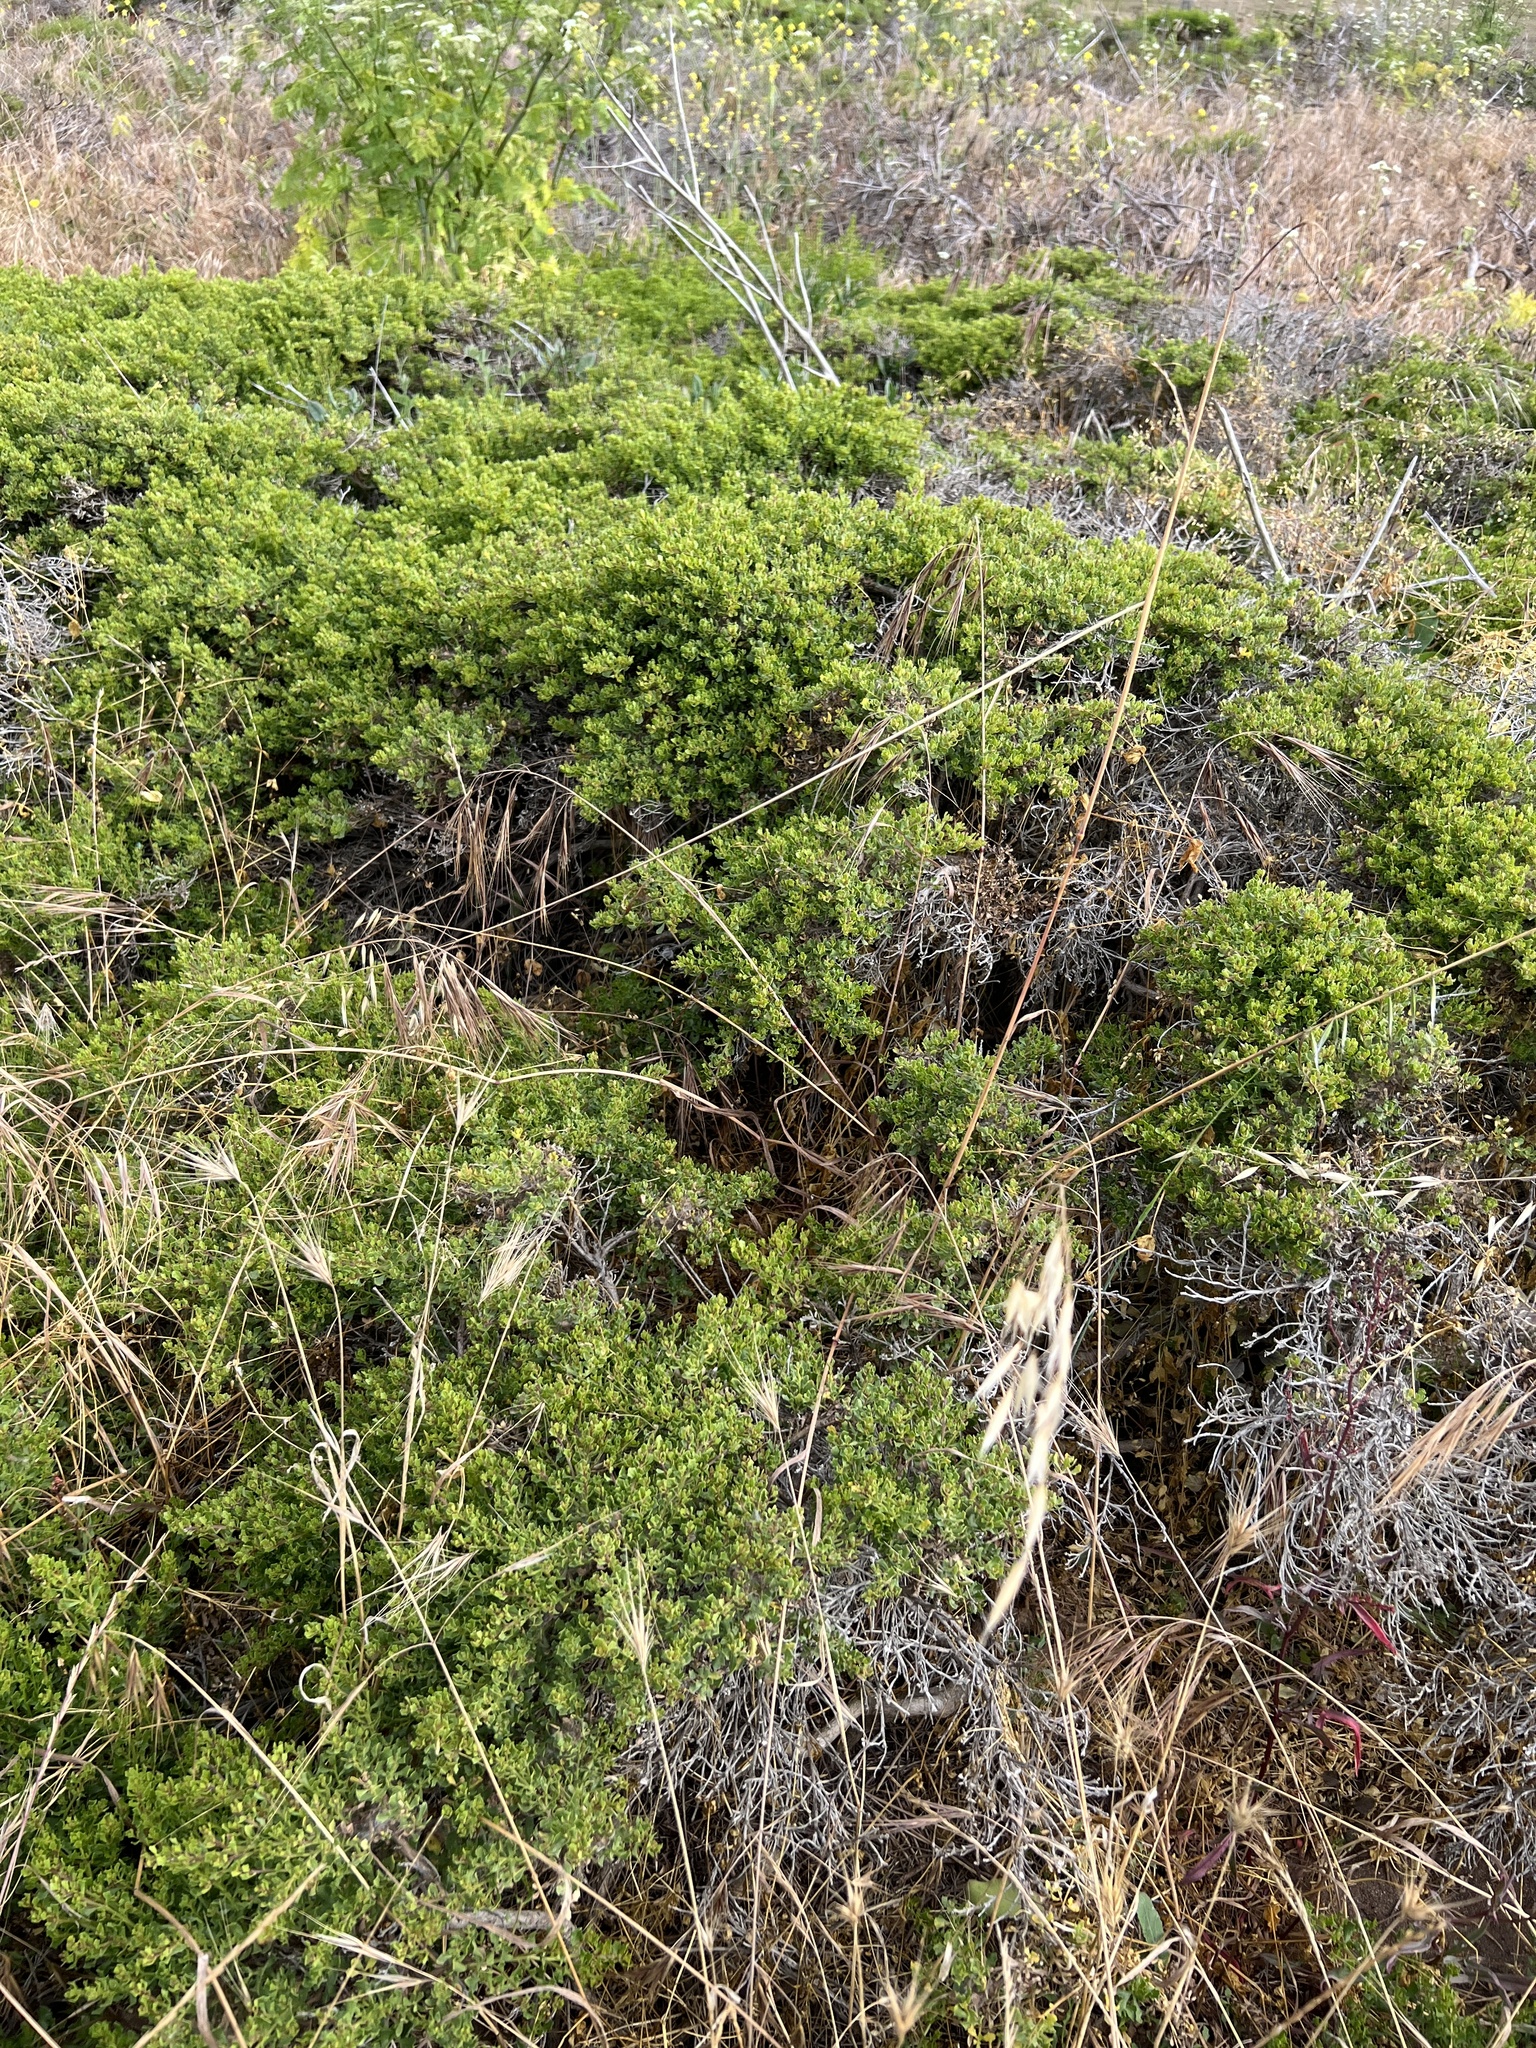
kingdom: Plantae
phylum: Tracheophyta
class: Magnoliopsida
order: Asterales
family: Asteraceae
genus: Baccharis
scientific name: Baccharis pilularis
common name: Coyotebrush
